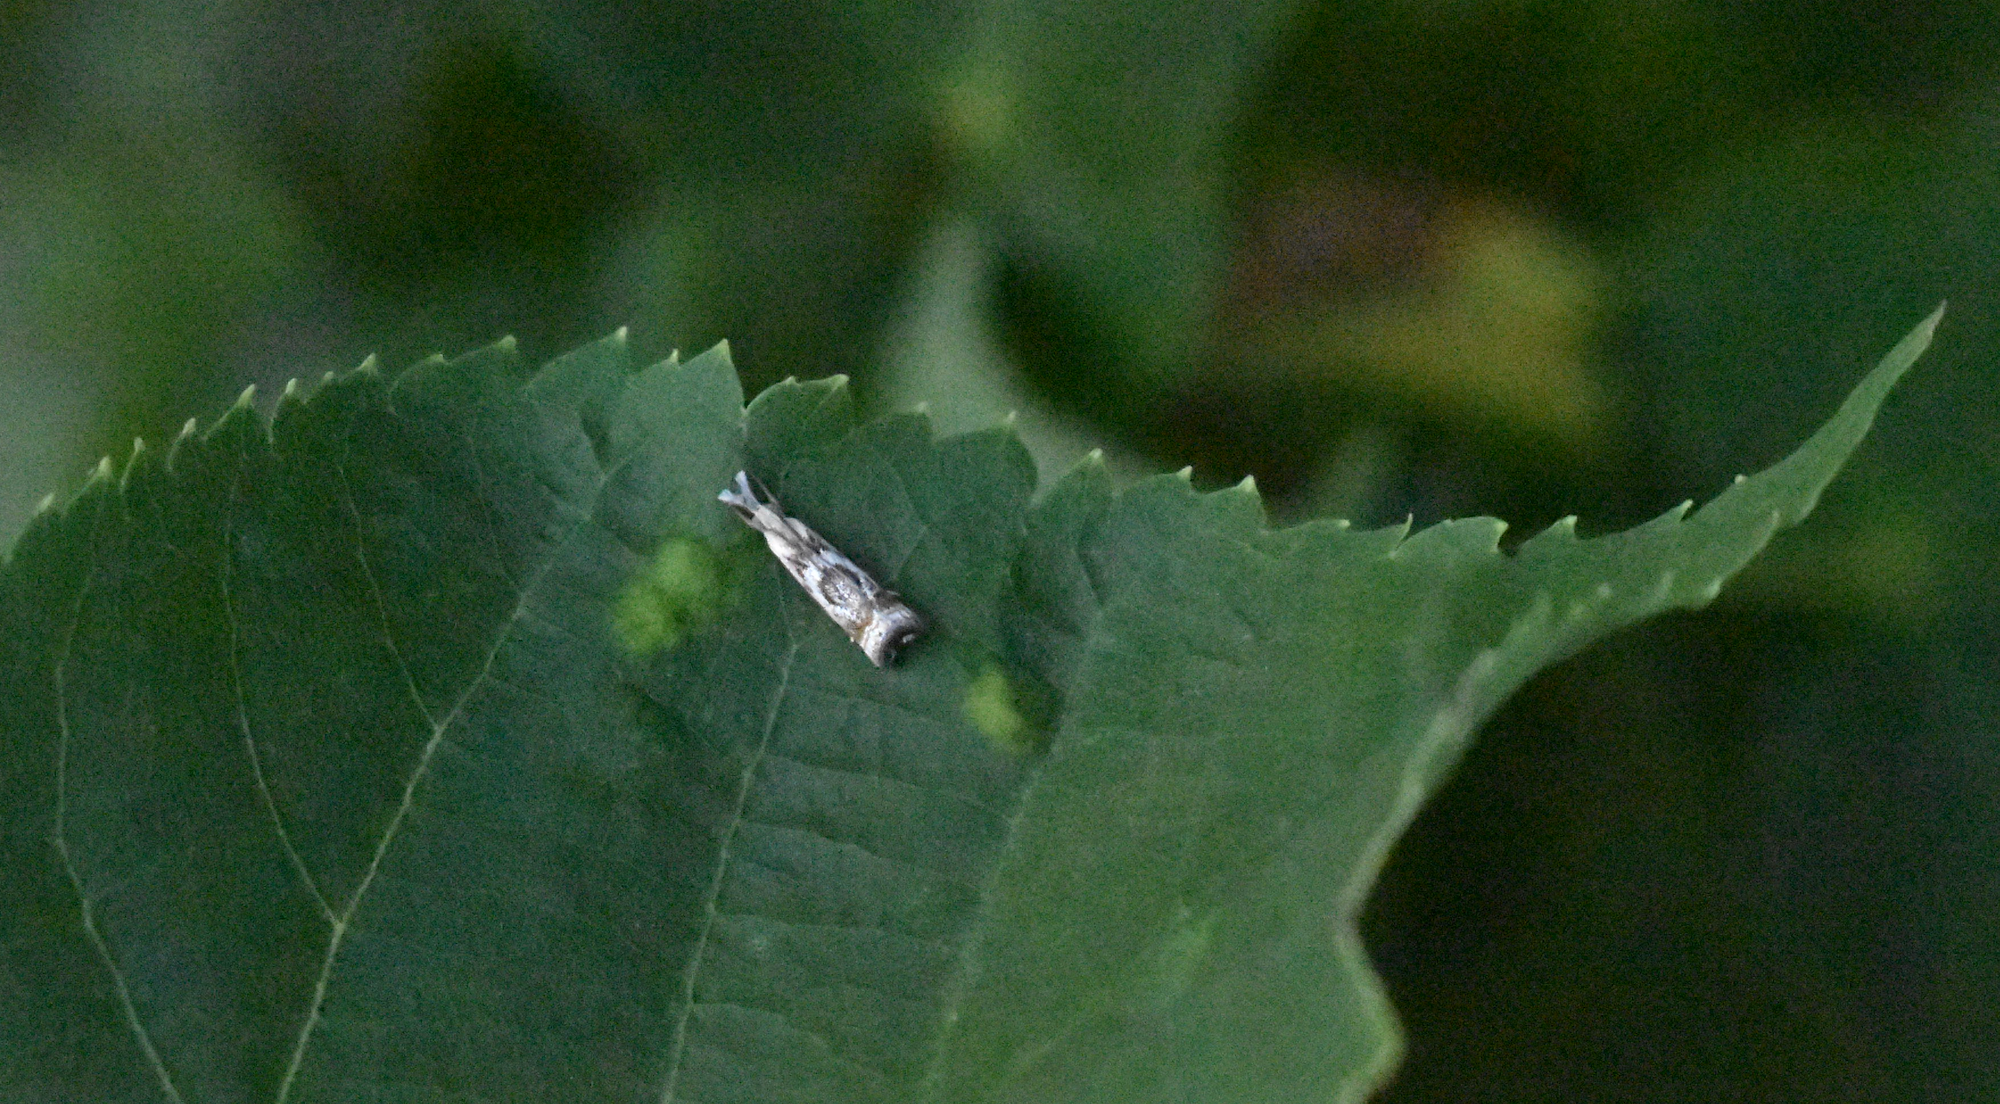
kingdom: Animalia
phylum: Arthropoda
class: Insecta
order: Lepidoptera
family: Crambidae
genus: Microcrambus
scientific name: Microcrambus elegans
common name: Elegant grass-veneer
